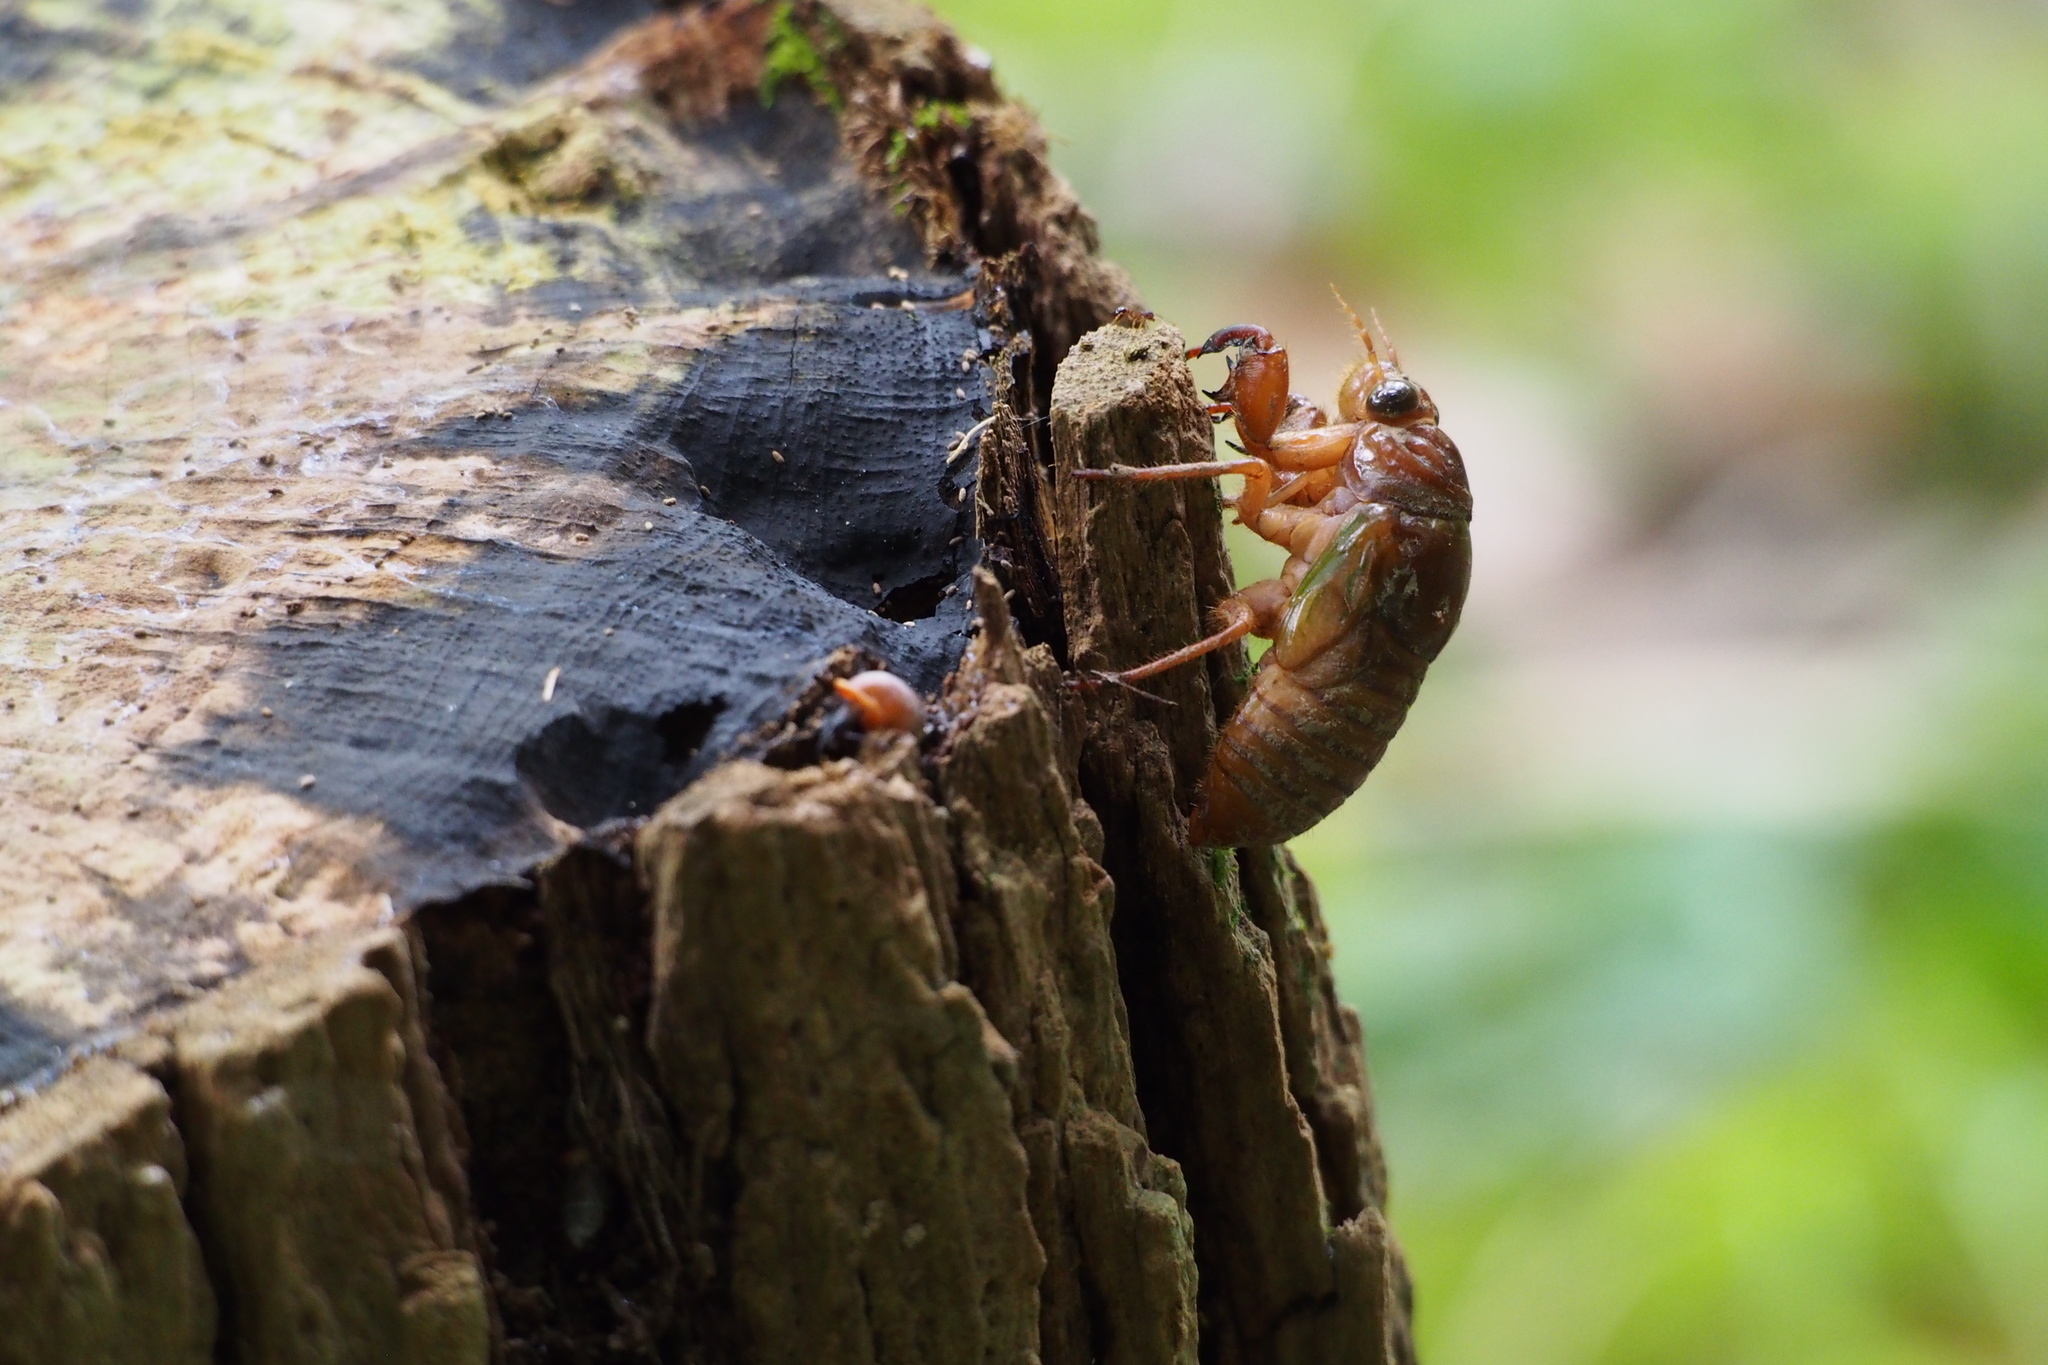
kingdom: Animalia
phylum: Arthropoda
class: Insecta
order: Hemiptera
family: Cicadidae
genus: Graptopsaltria
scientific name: Graptopsaltria nigrofuscata
